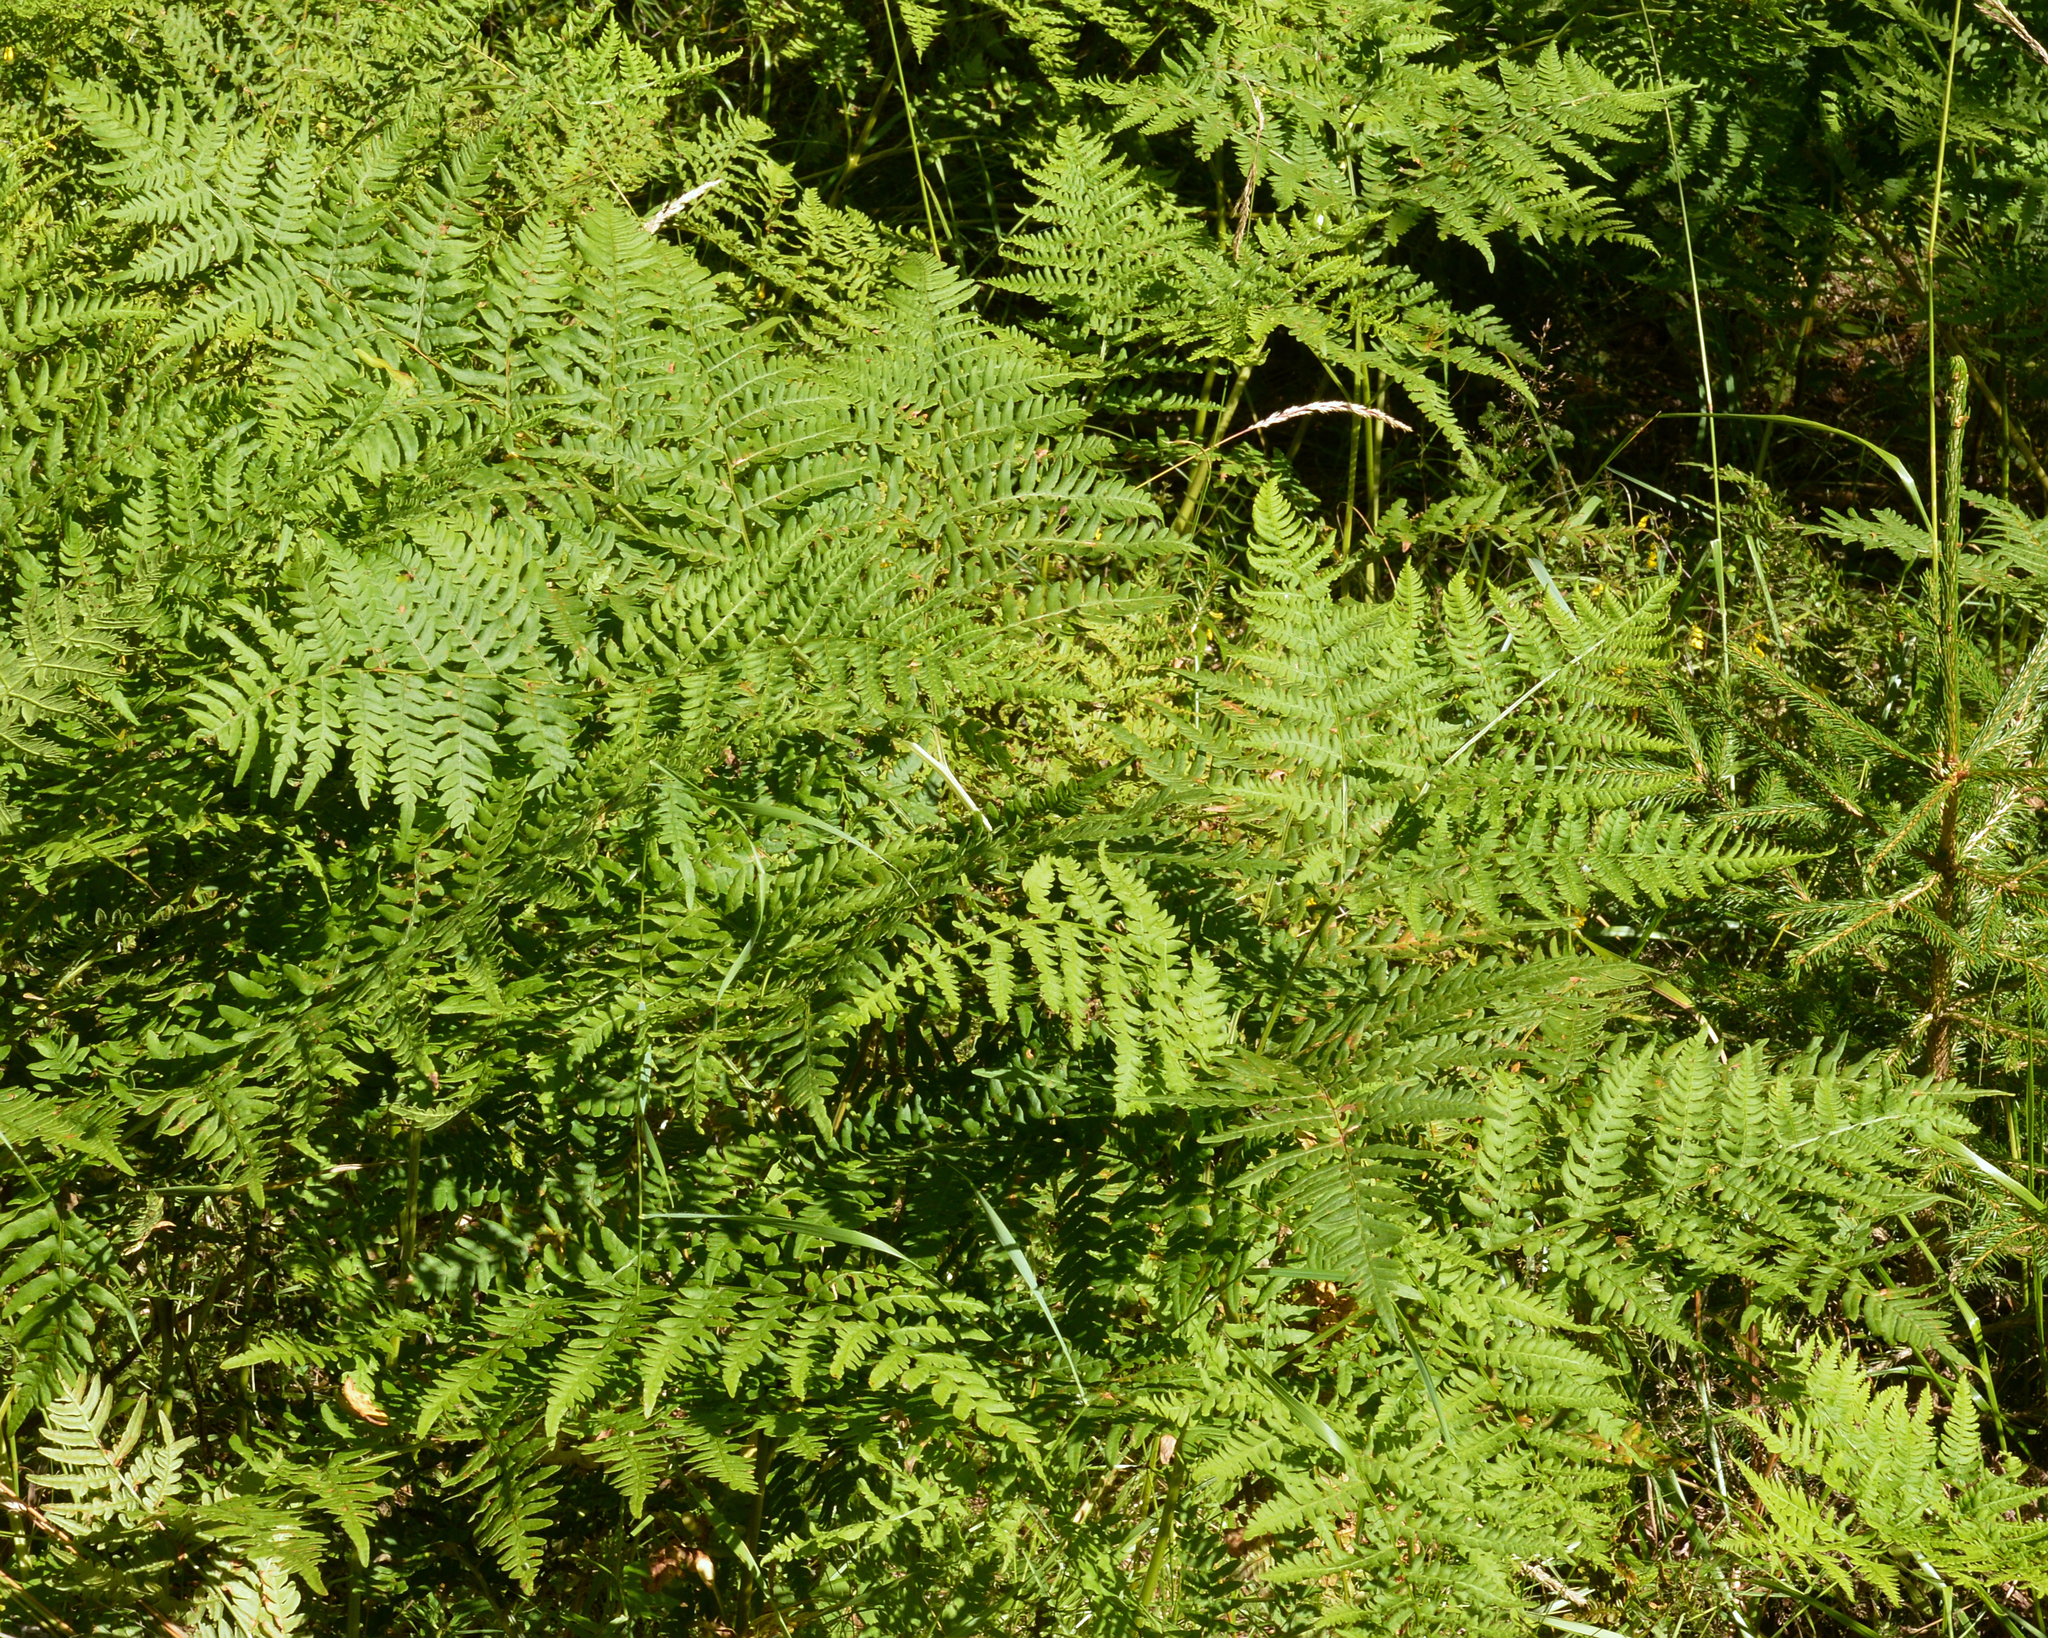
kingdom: Plantae
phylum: Tracheophyta
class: Polypodiopsida
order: Polypodiales
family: Dennstaedtiaceae
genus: Pteridium
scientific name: Pteridium aquilinum
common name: Bracken
